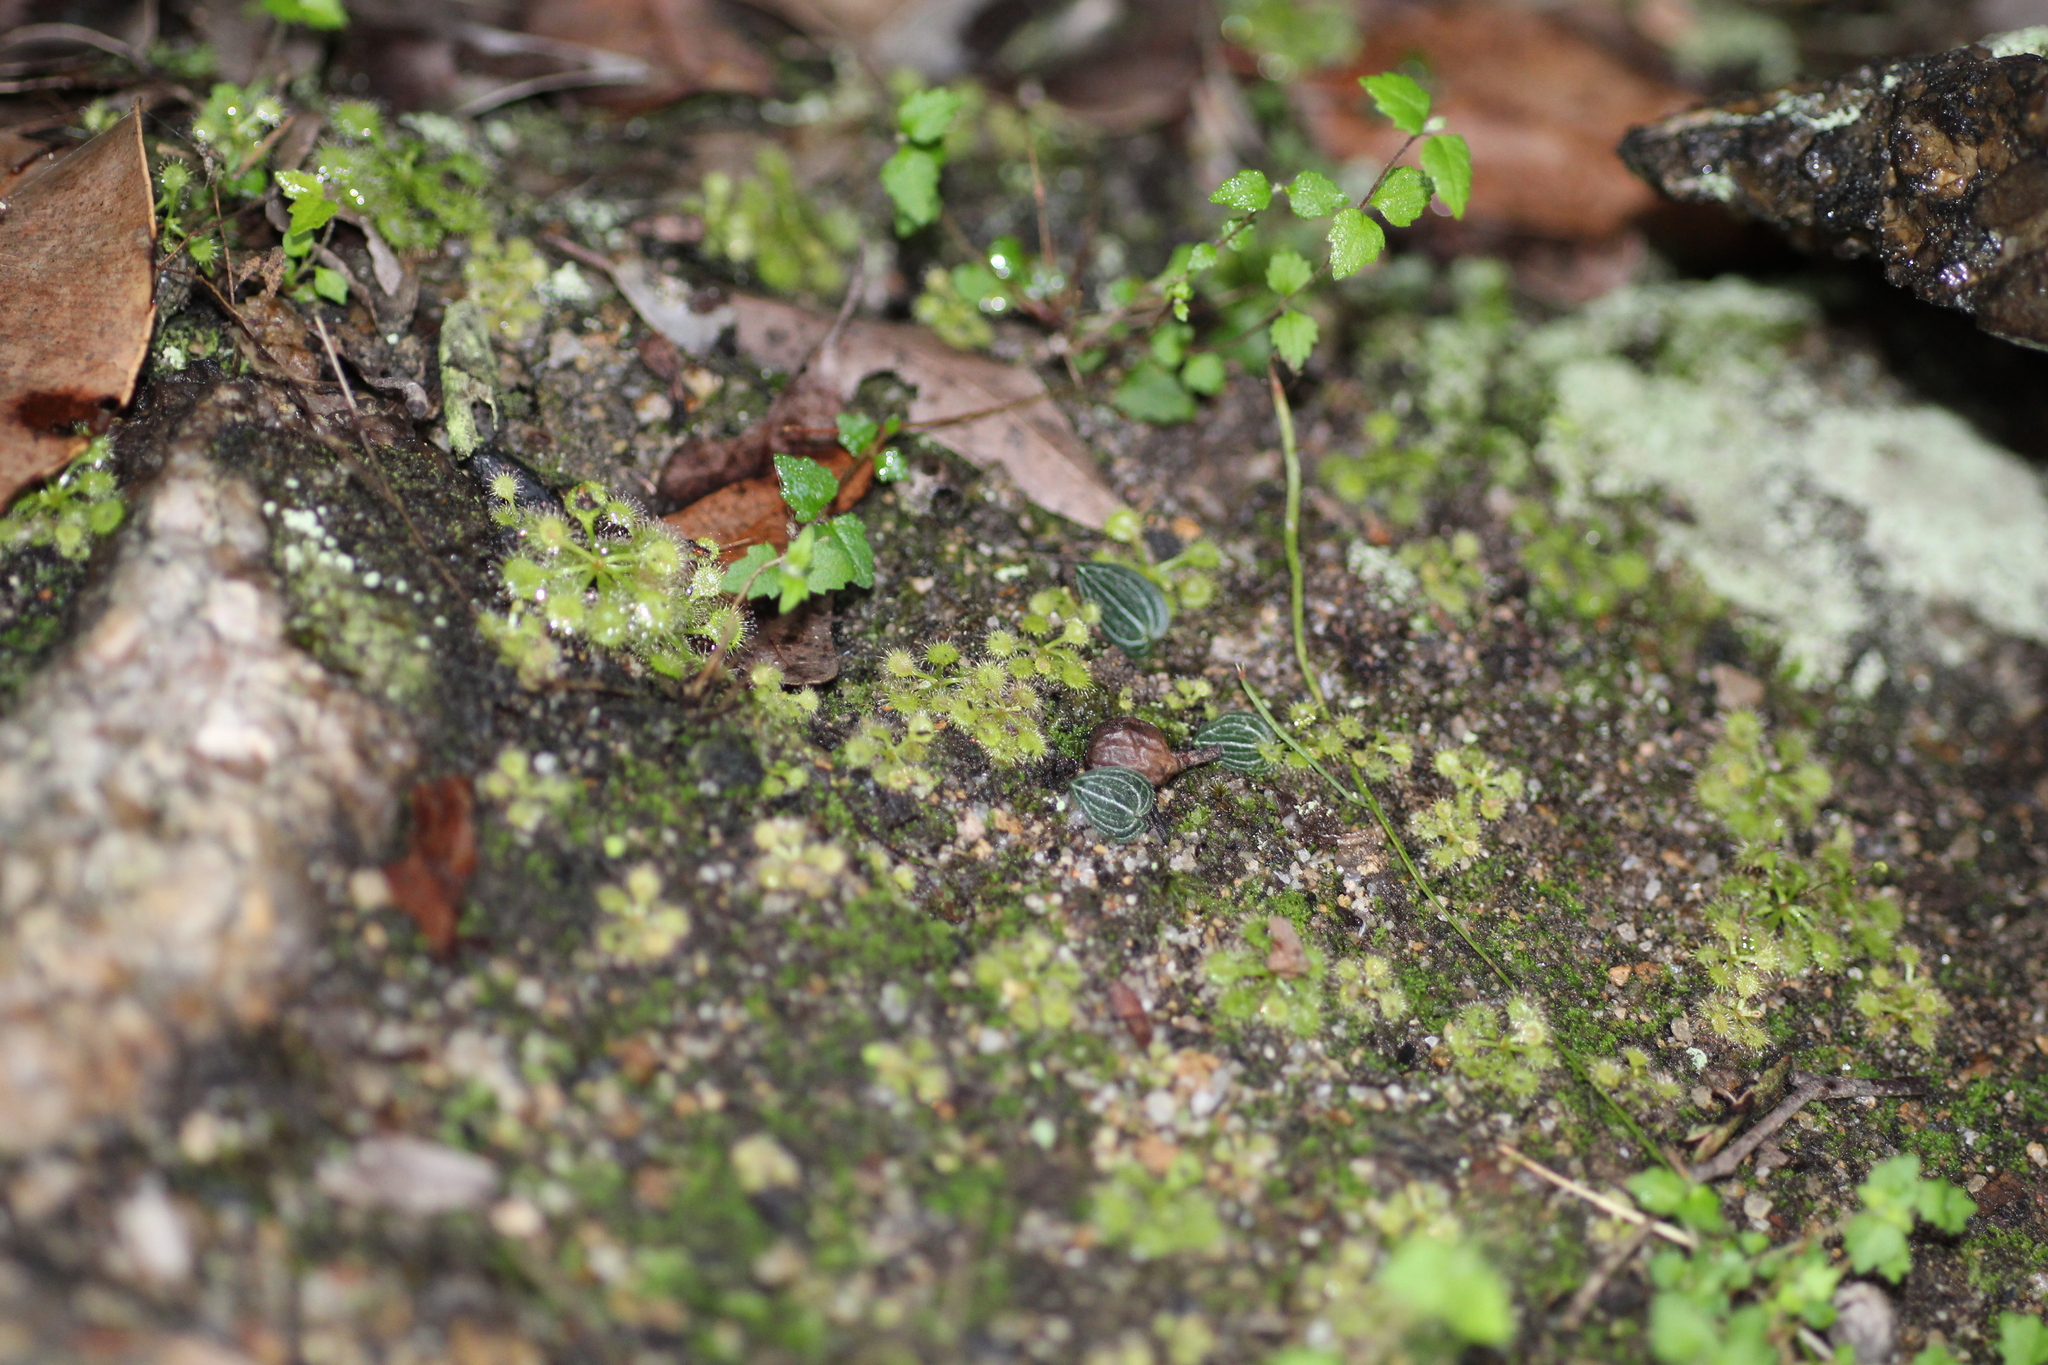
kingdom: Plantae
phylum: Tracheophyta
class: Magnoliopsida
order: Caryophyllales
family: Droseraceae
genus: Drosera
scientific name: Drosera modesta
